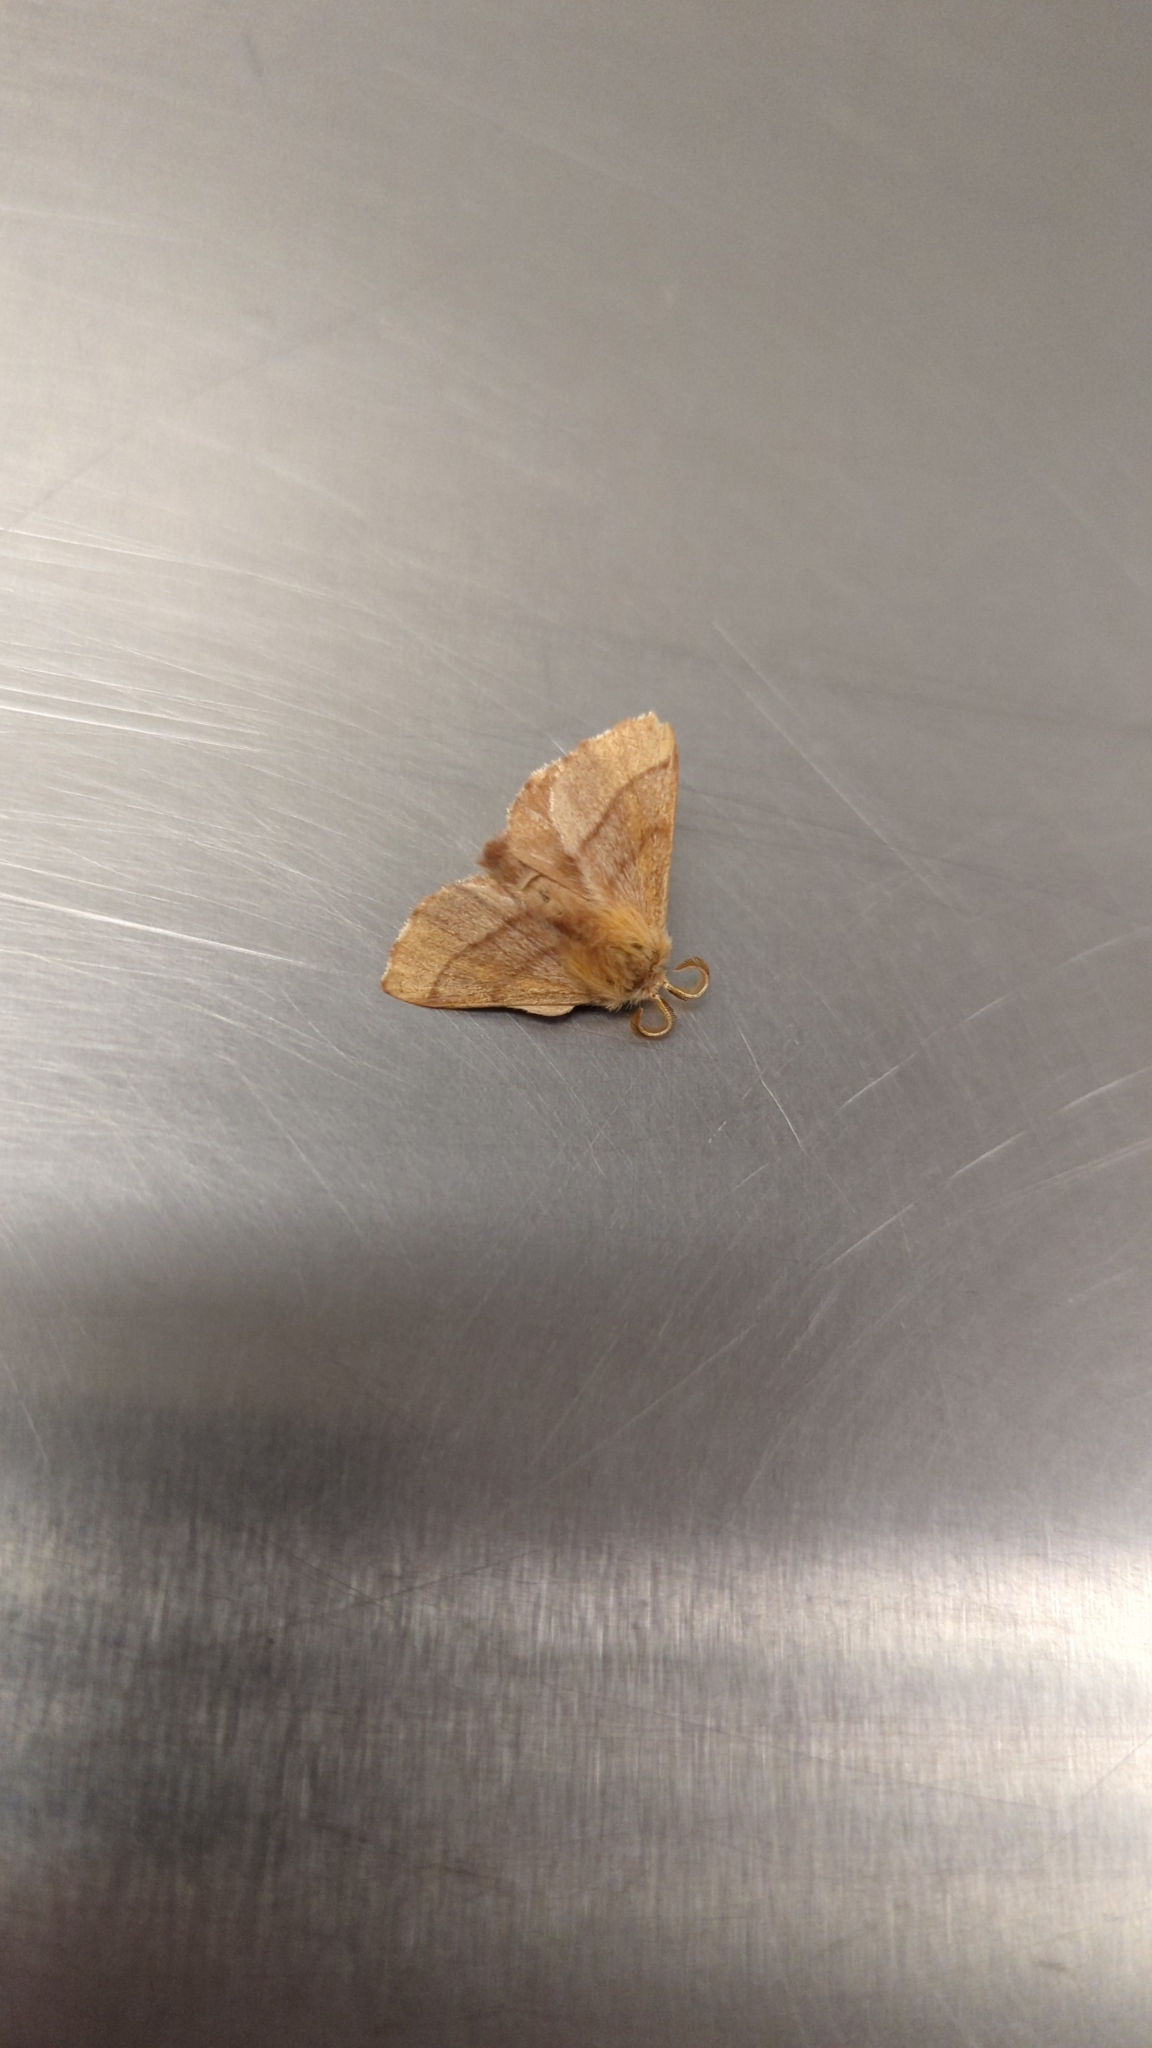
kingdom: Animalia
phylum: Arthropoda
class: Insecta
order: Lepidoptera
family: Lasiocampidae
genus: Malacosoma
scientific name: Malacosoma disstria
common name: Forest tent caterpillar
